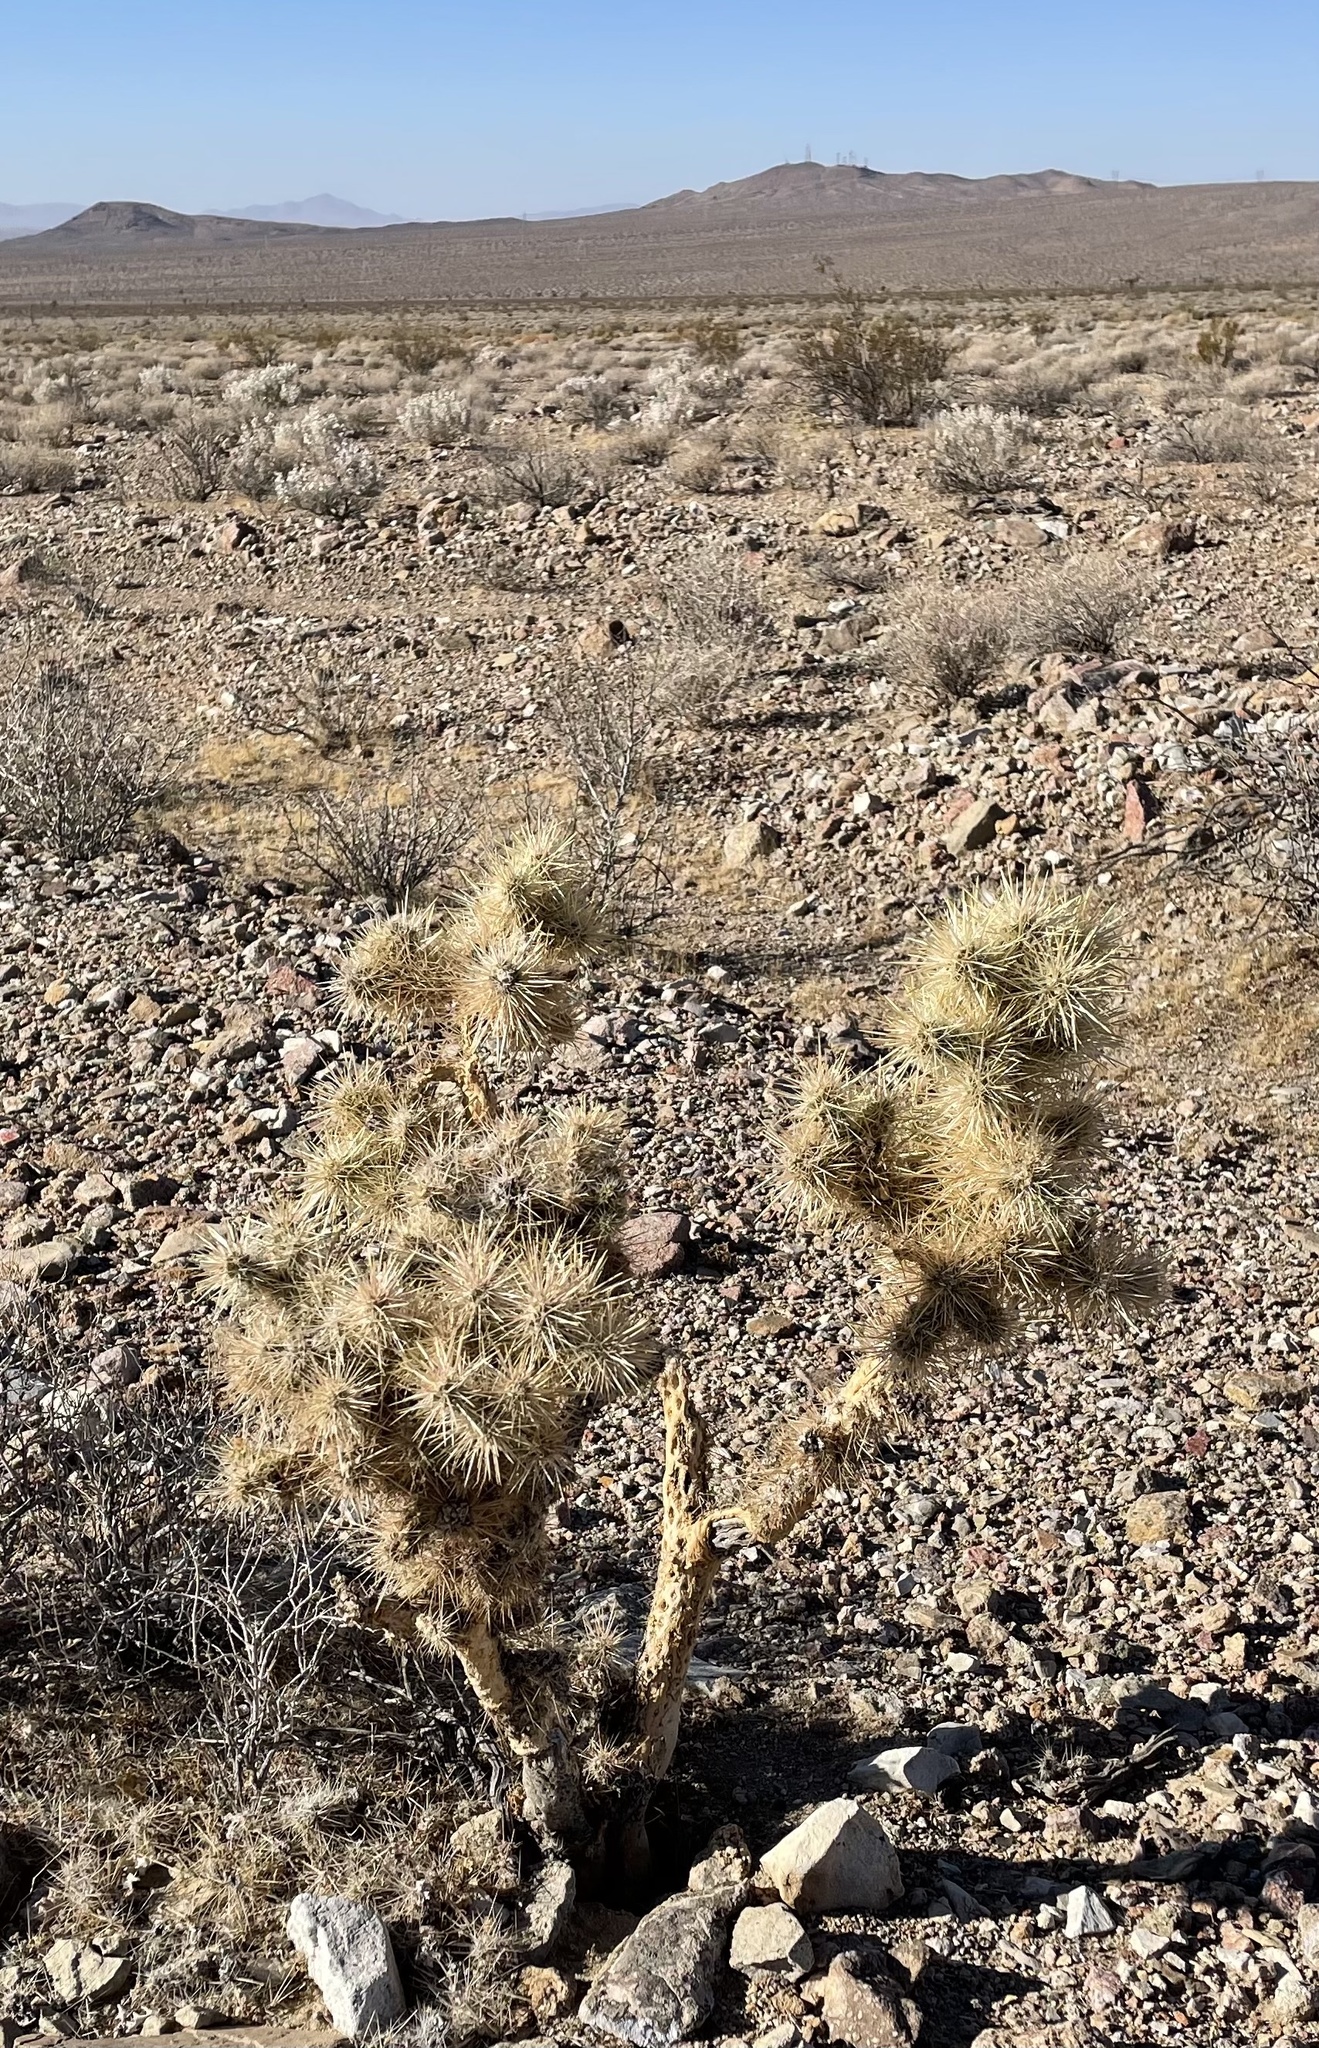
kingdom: Plantae
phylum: Tracheophyta
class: Magnoliopsida
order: Caryophyllales
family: Cactaceae
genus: Cylindropuntia
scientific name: Cylindropuntia echinocarpa
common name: Ground cholla
